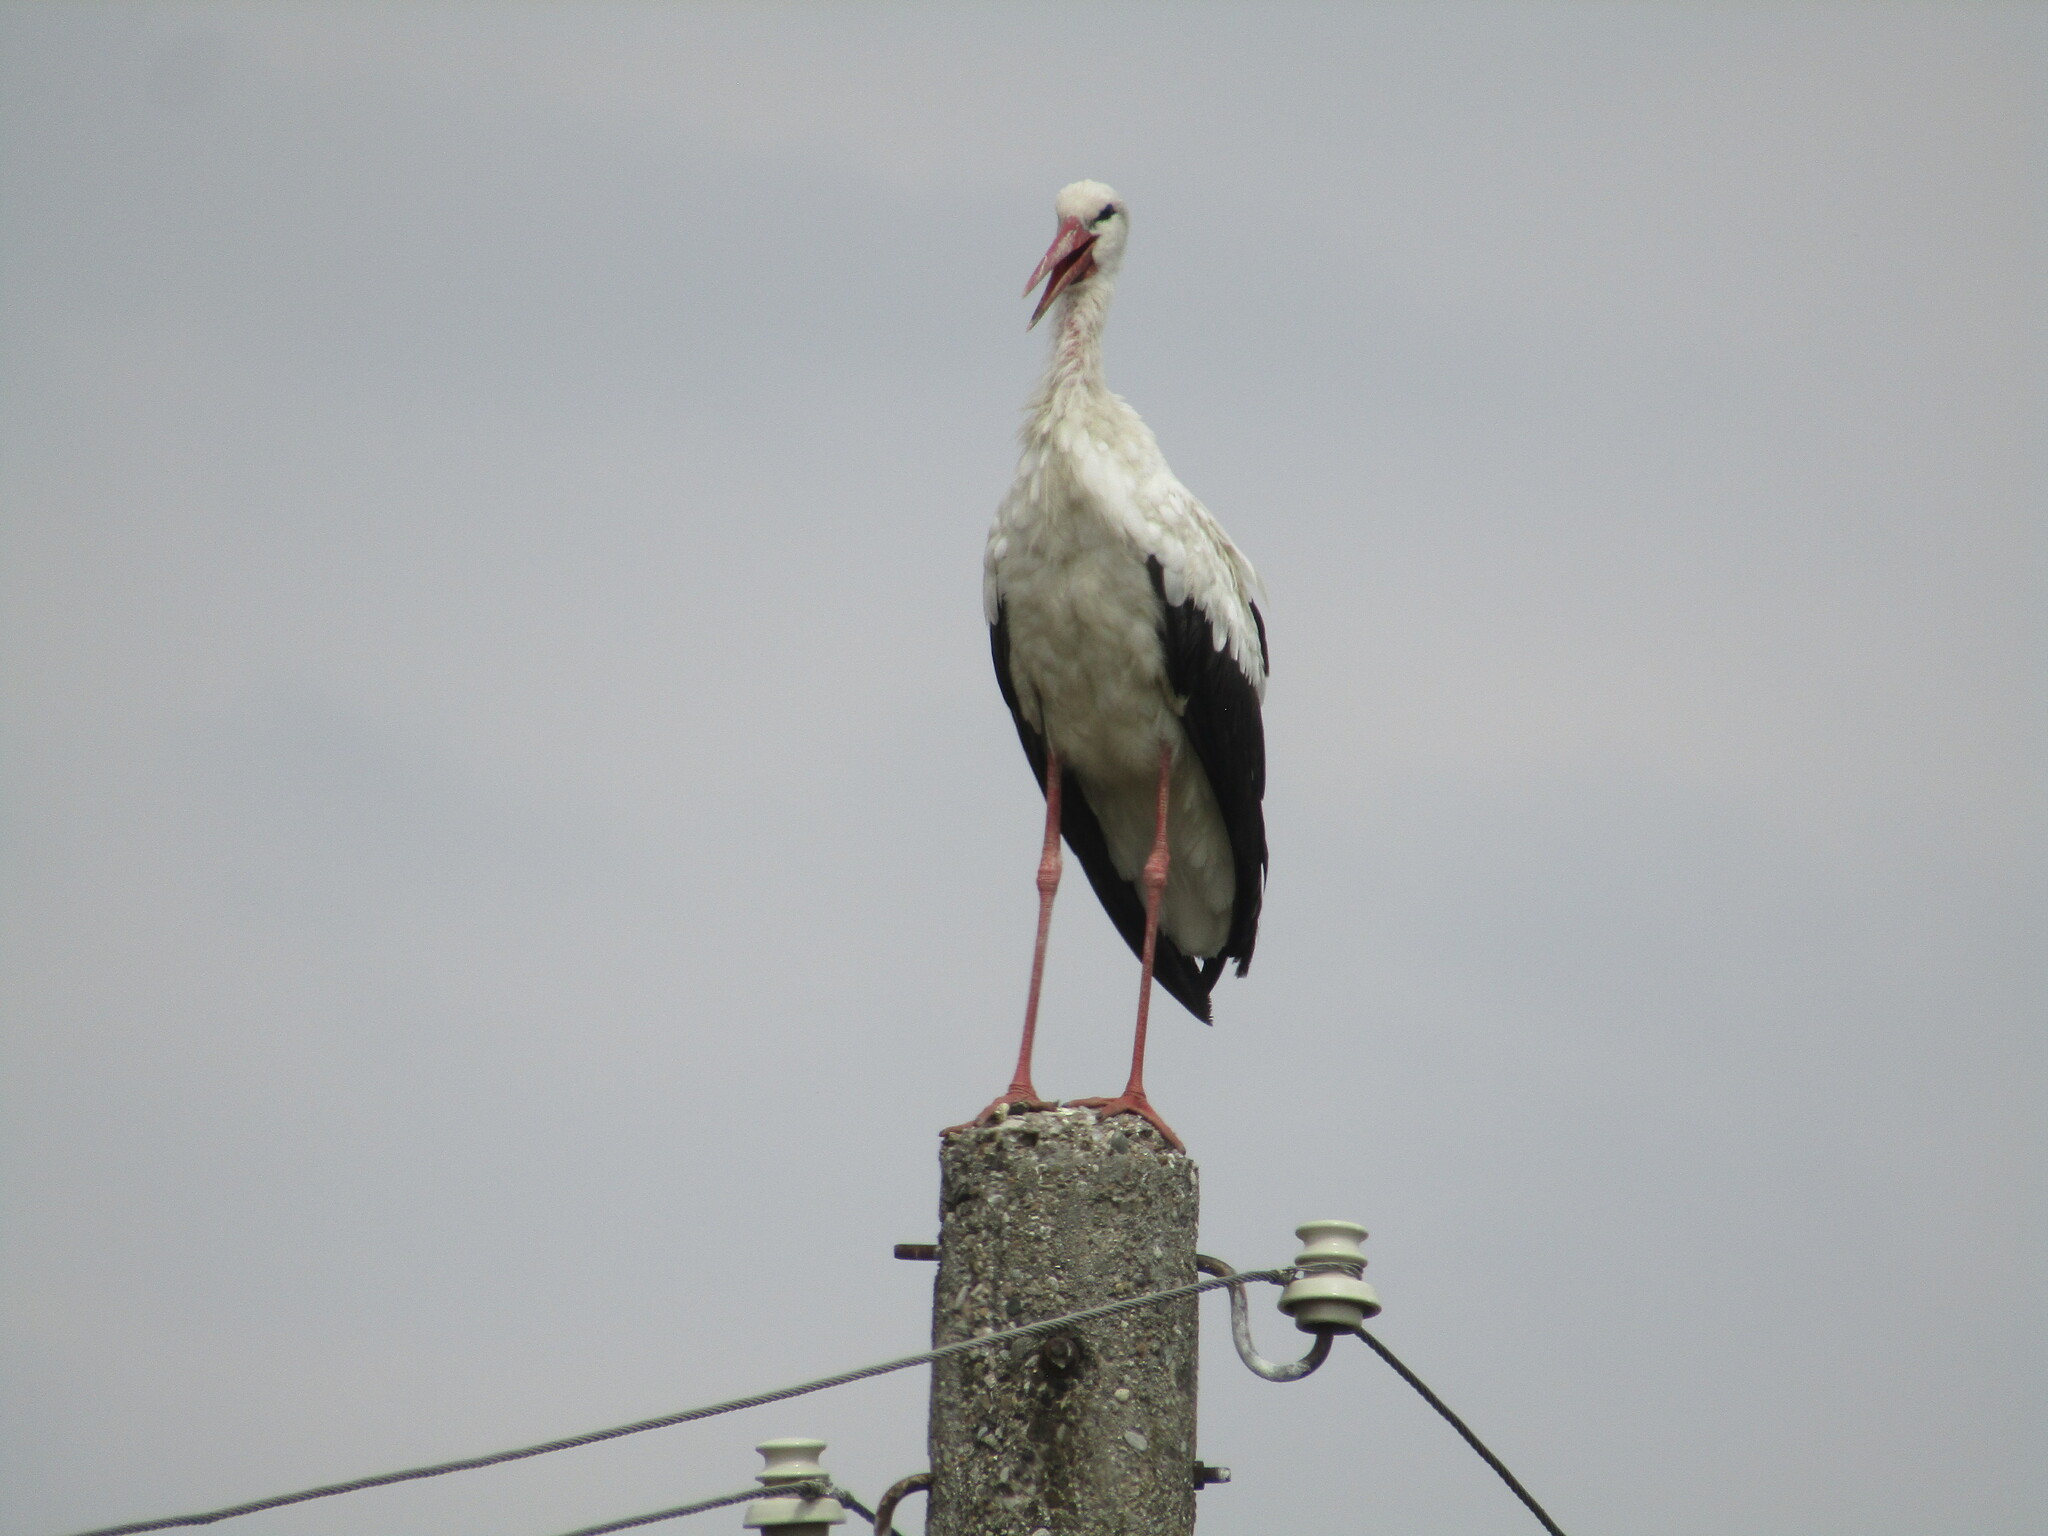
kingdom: Animalia
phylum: Chordata
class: Aves
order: Ciconiiformes
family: Ciconiidae
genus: Ciconia
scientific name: Ciconia ciconia
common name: White stork
